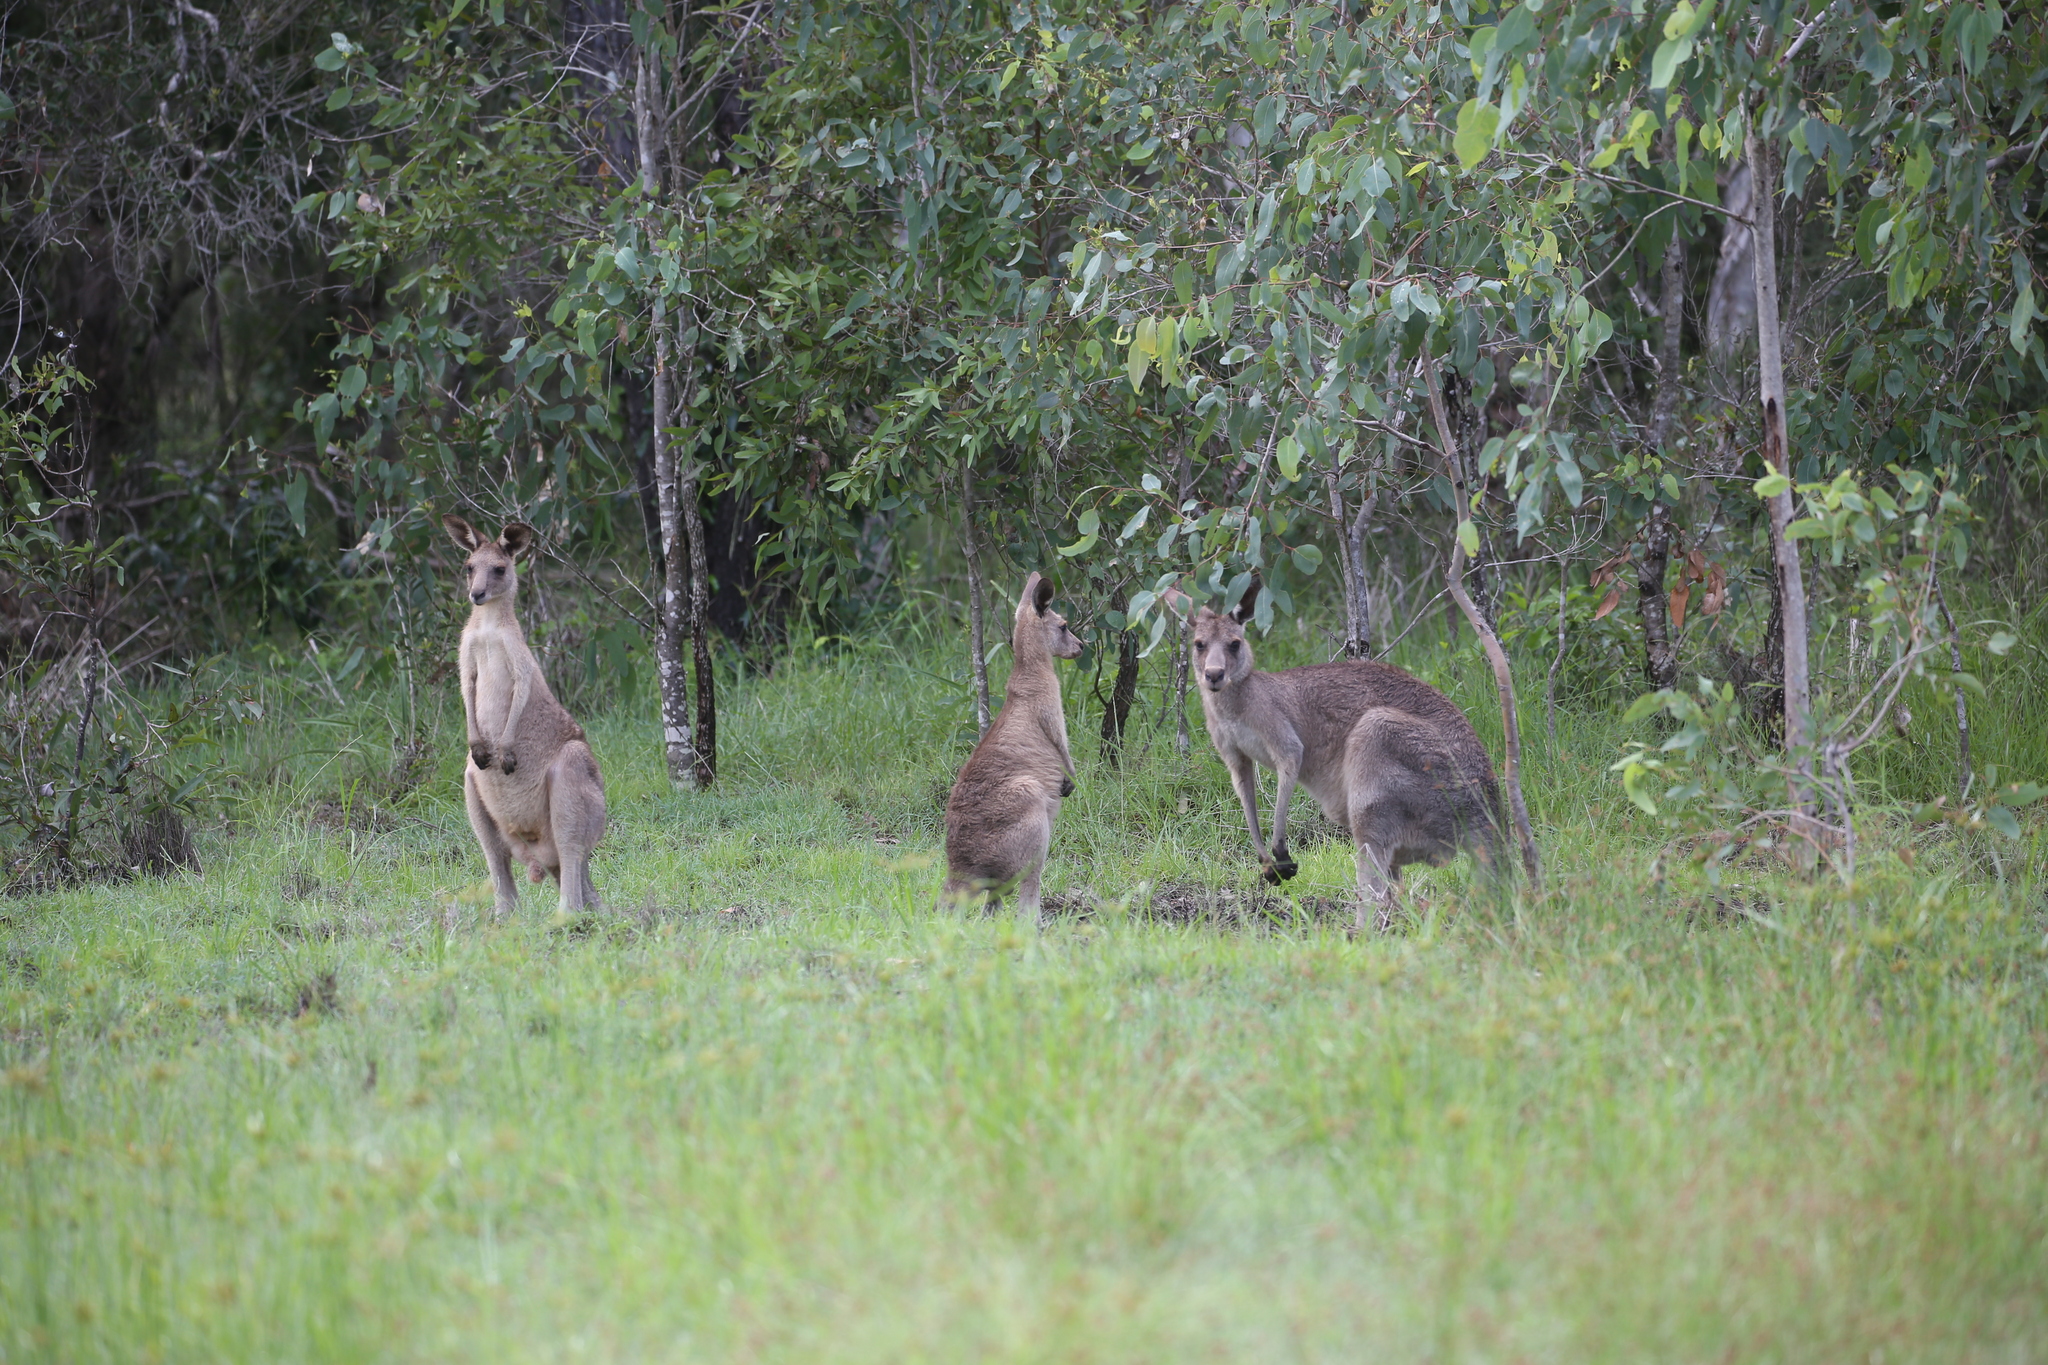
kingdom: Animalia
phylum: Chordata
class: Mammalia
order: Diprotodontia
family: Macropodidae
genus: Macropus
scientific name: Macropus giganteus
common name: Eastern grey kangaroo
